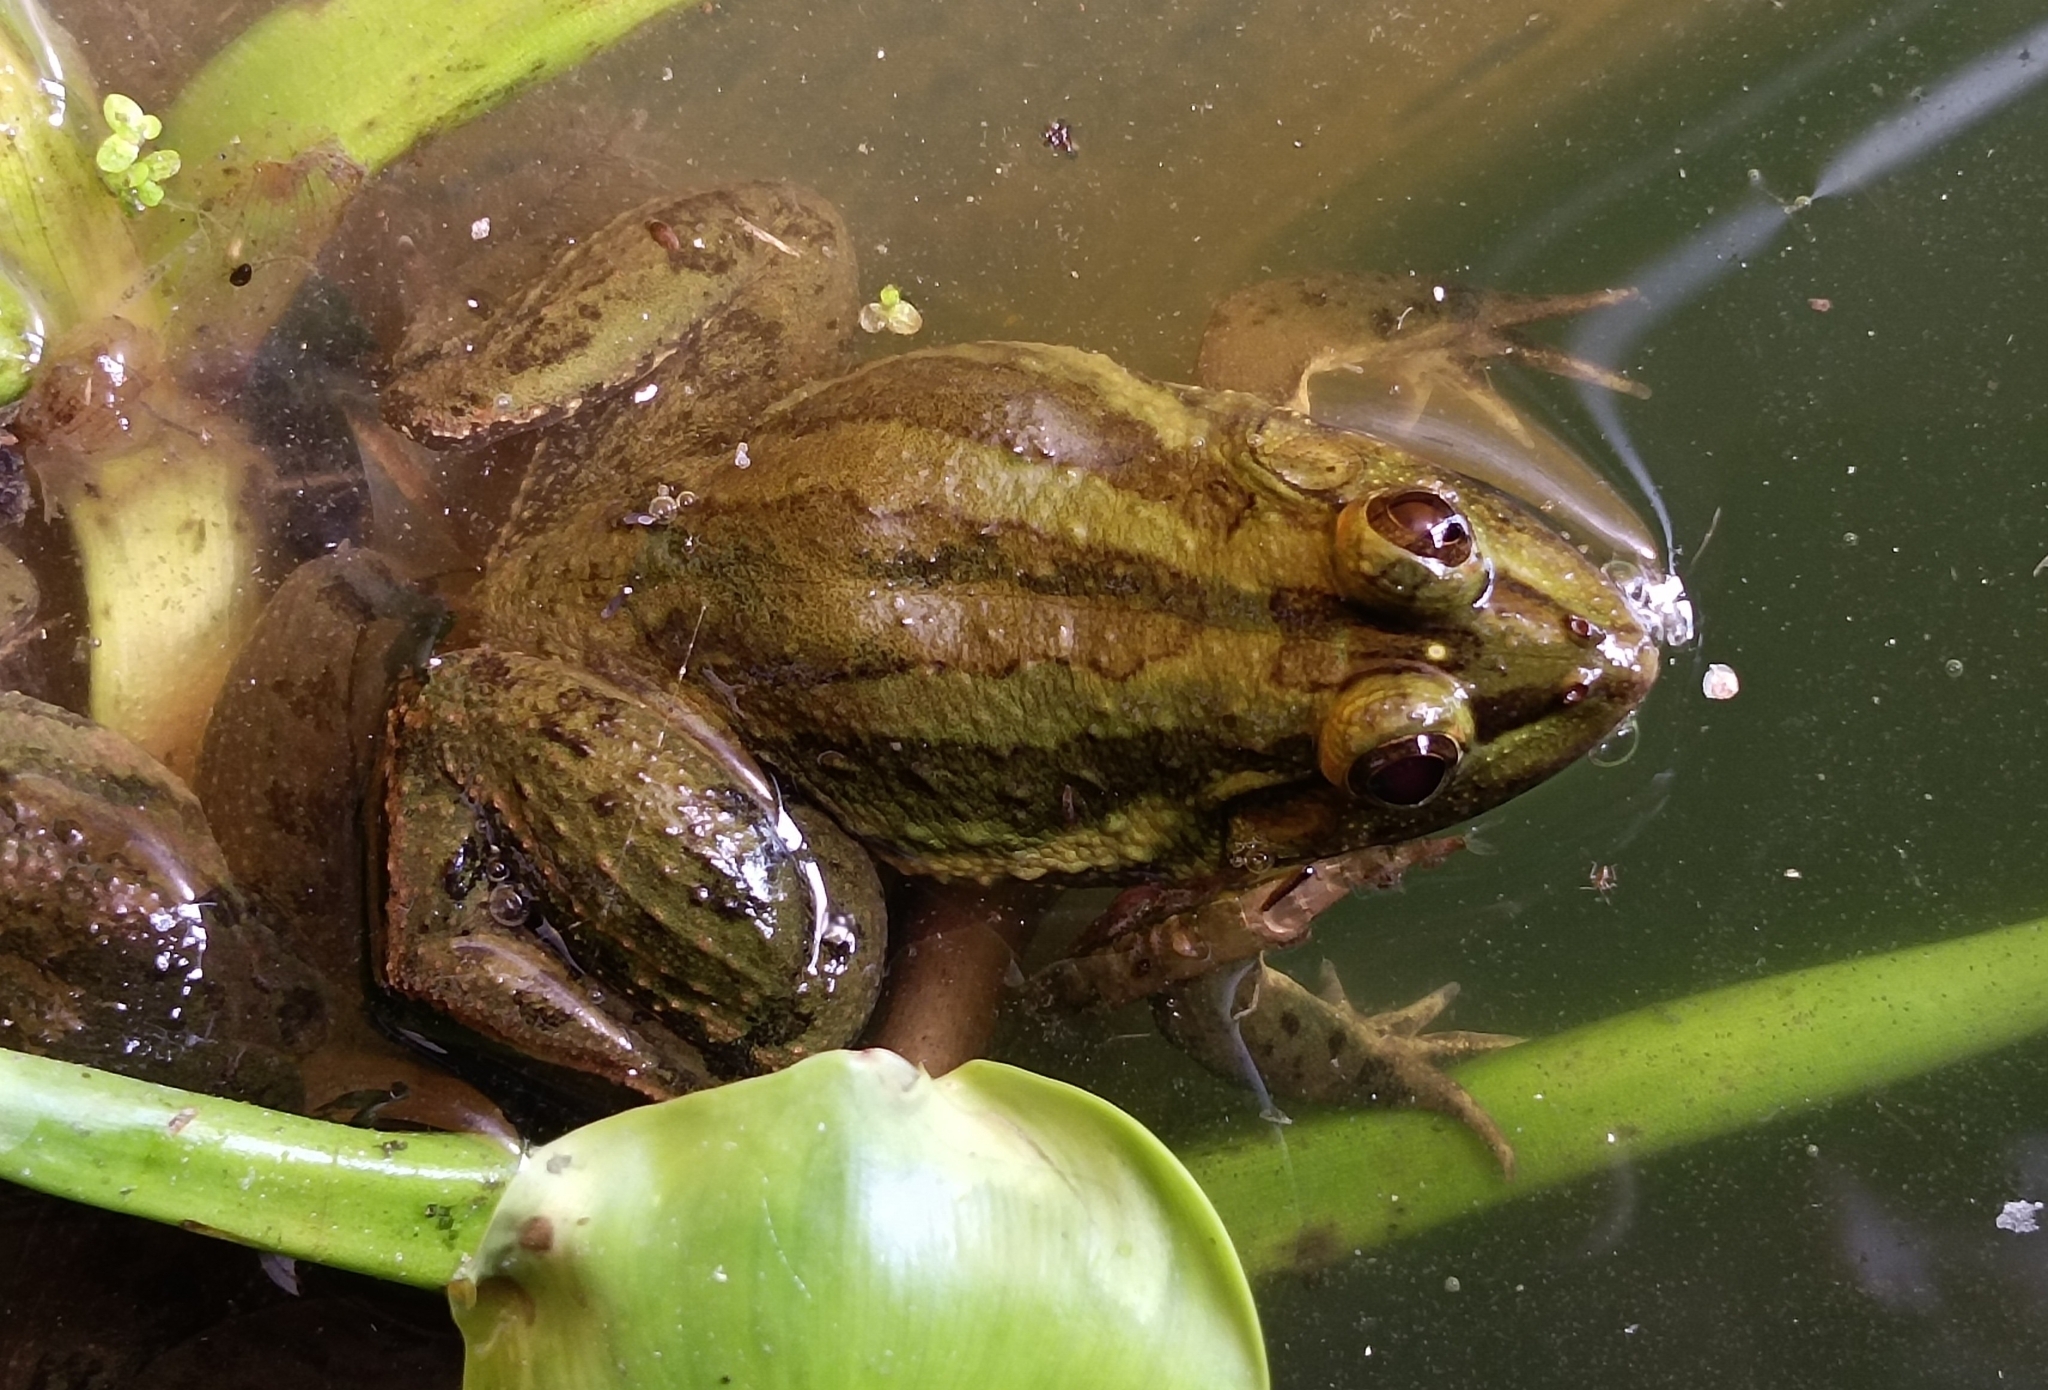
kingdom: Animalia
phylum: Chordata
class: Amphibia
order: Anura
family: Dicroglossidae
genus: Euphlyctis
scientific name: Euphlyctis karaavali
